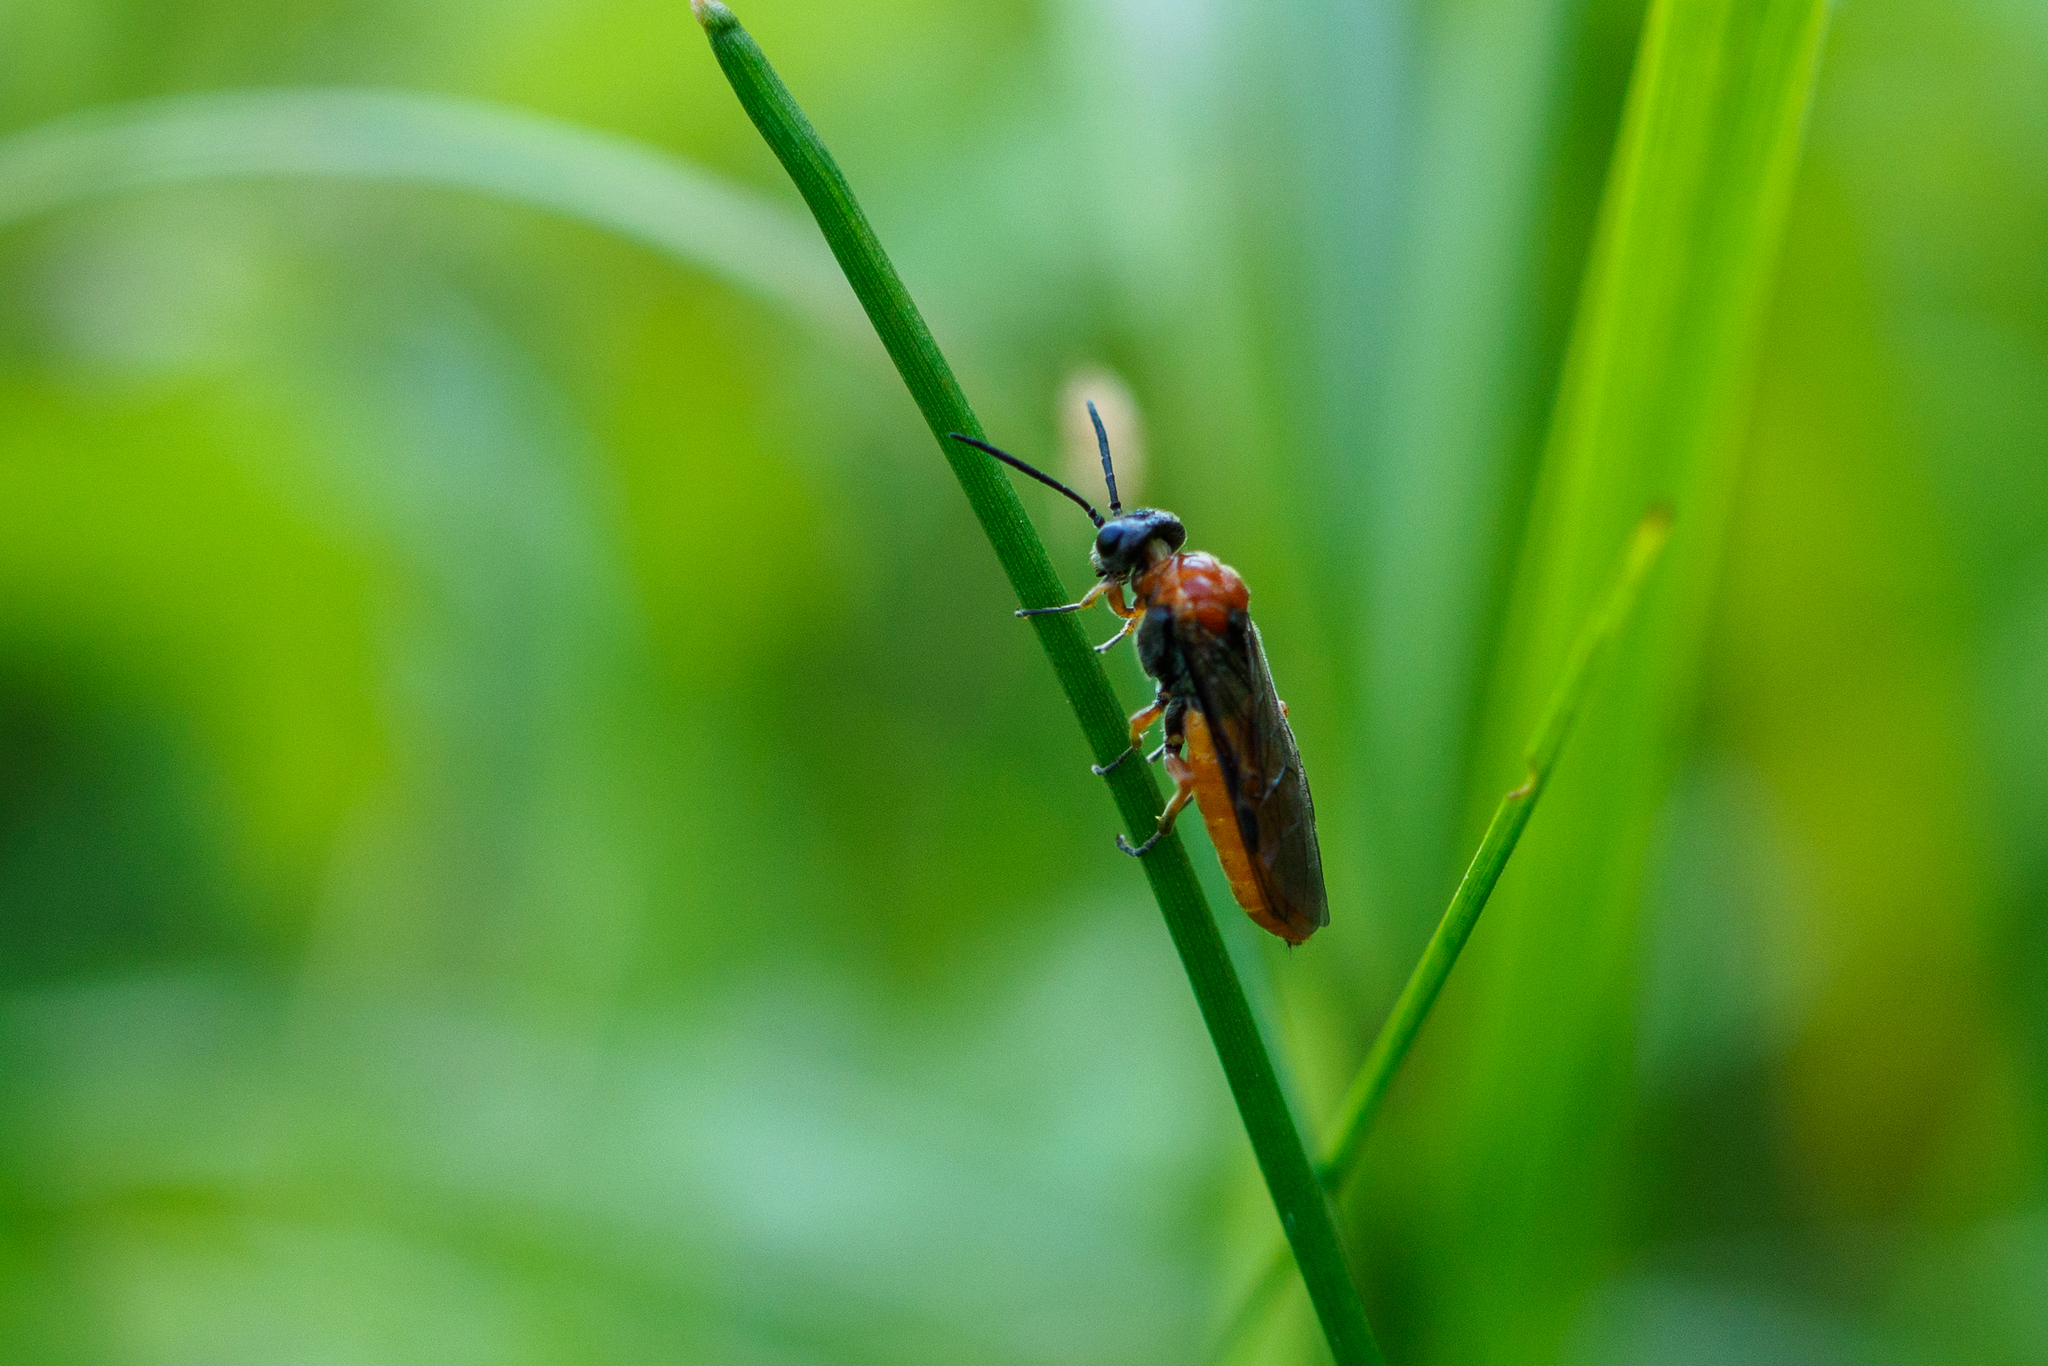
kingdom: Animalia
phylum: Arthropoda
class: Insecta
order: Hymenoptera
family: Tenthredinidae
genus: Dolerus
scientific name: Dolerus germanicus
